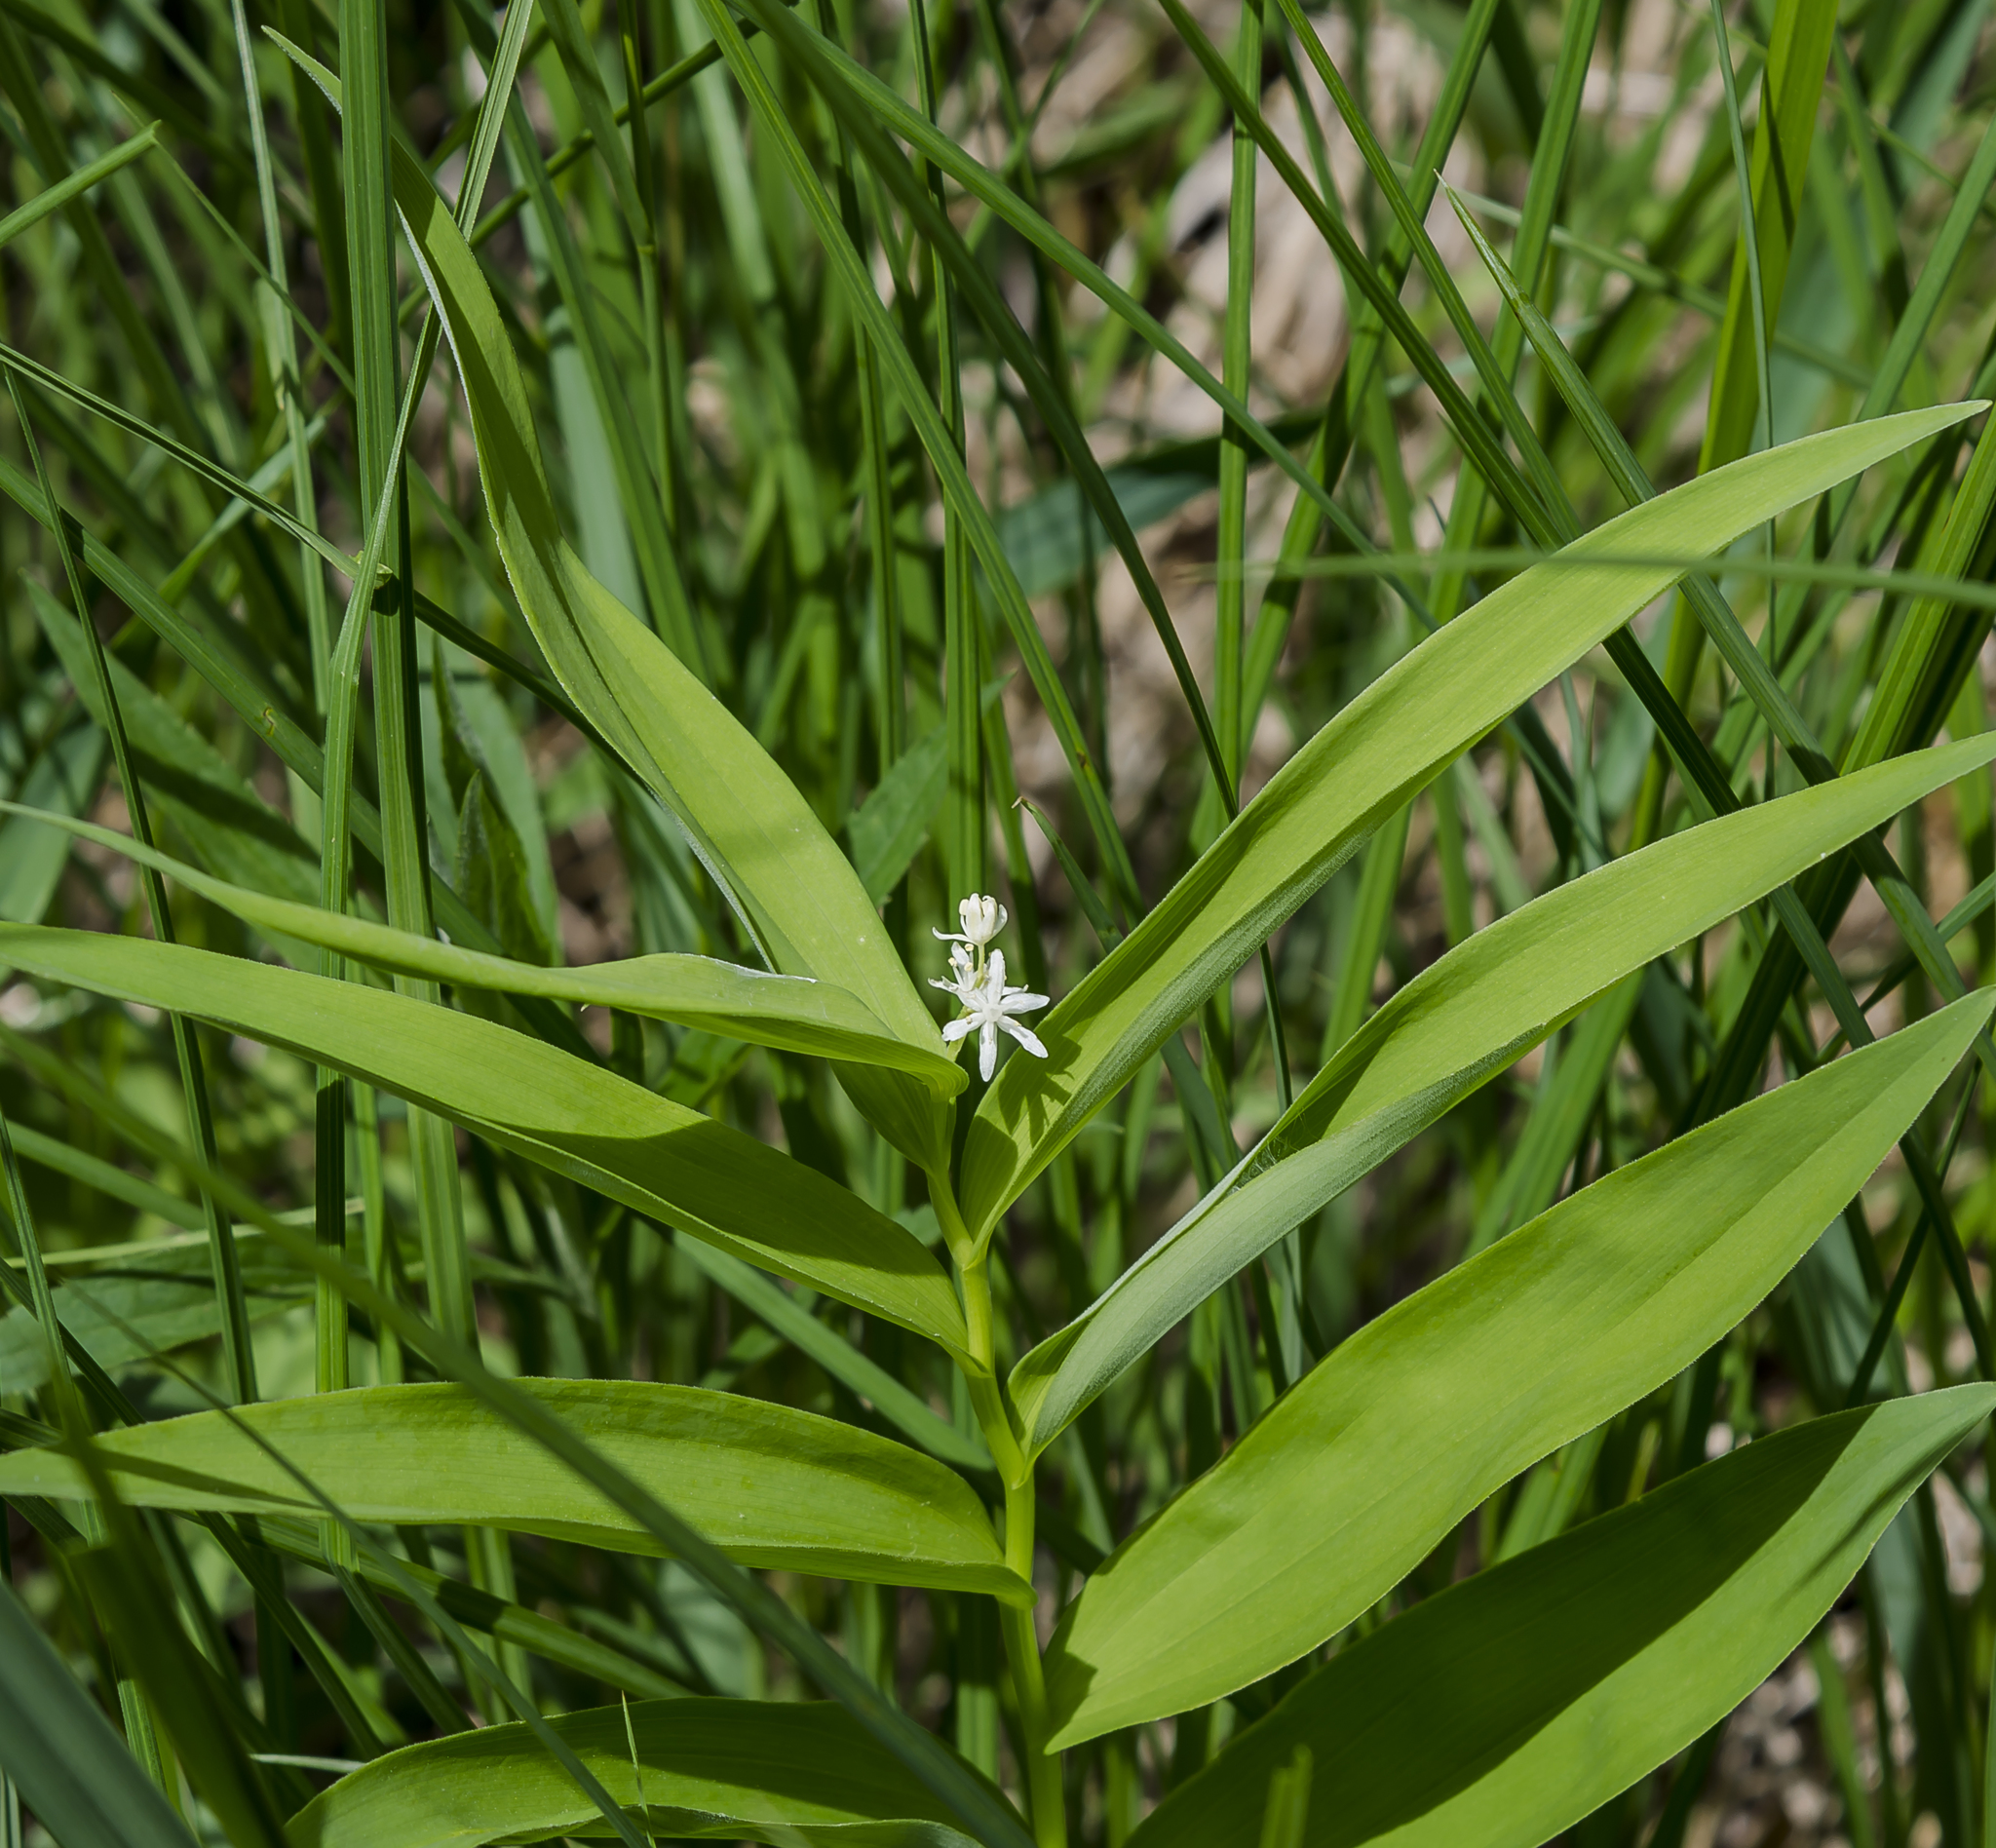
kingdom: Plantae
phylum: Tracheophyta
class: Liliopsida
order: Asparagales
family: Asparagaceae
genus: Maianthemum
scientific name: Maianthemum stellatum
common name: Little false solomon's seal
